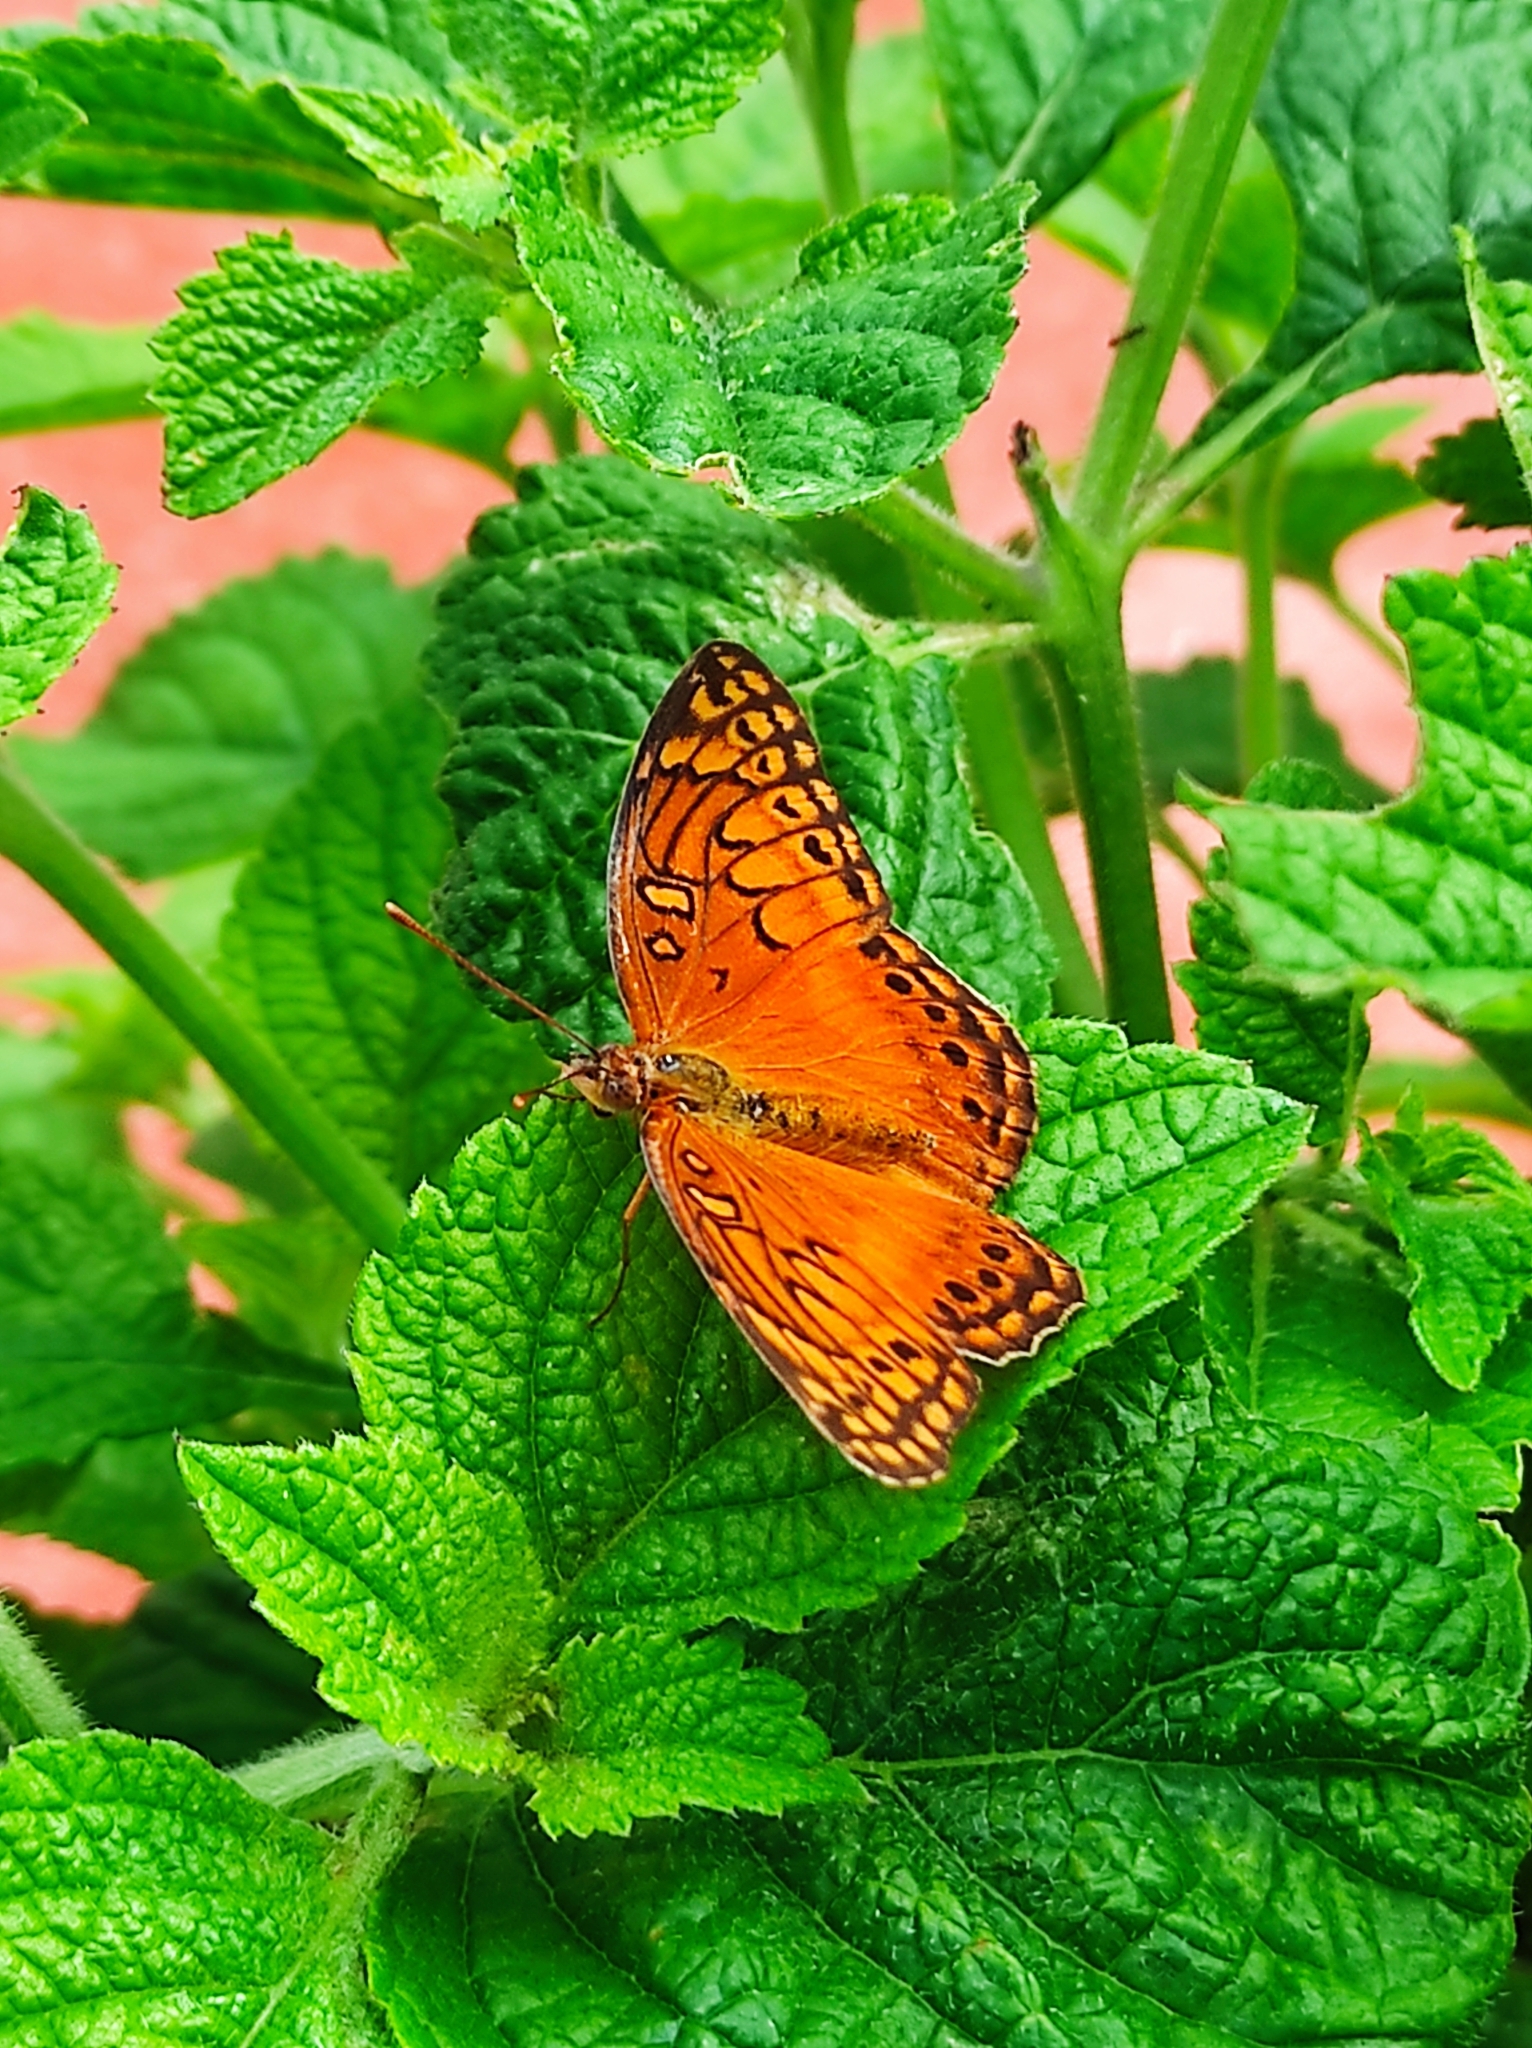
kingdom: Animalia
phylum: Arthropoda
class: Insecta
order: Lepidoptera
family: Nymphalidae
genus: Euptoieta
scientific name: Euptoieta hegesia
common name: Mexican fritillary
